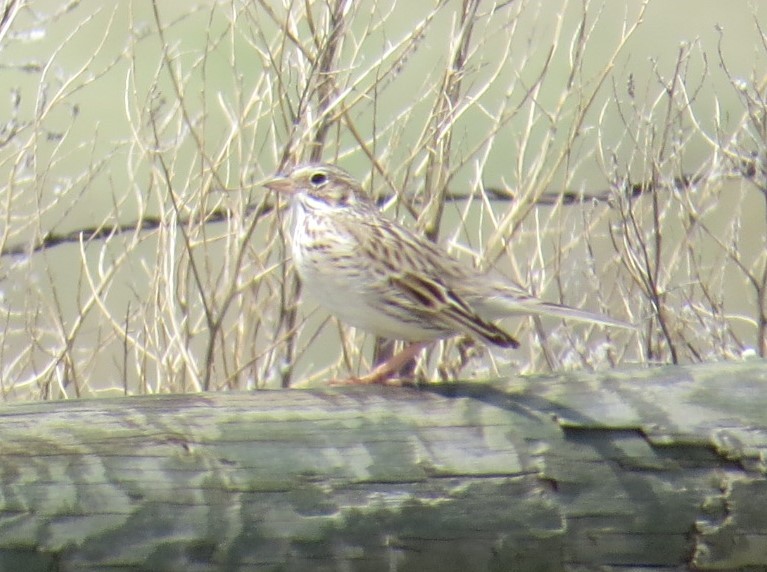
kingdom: Animalia
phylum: Chordata
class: Aves
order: Passeriformes
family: Passerellidae
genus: Passerculus
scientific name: Passerculus sandwichensis
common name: Savannah sparrow
